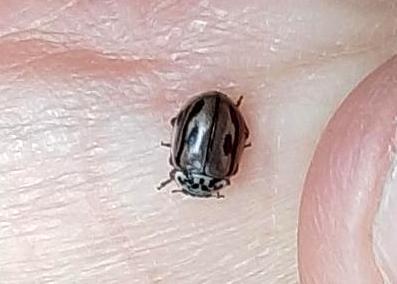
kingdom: Animalia
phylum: Arthropoda
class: Insecta
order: Coleoptera
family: Coccinellidae
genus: Mulsantina
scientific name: Mulsantina hudsonica
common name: Hudsonian ladybird
